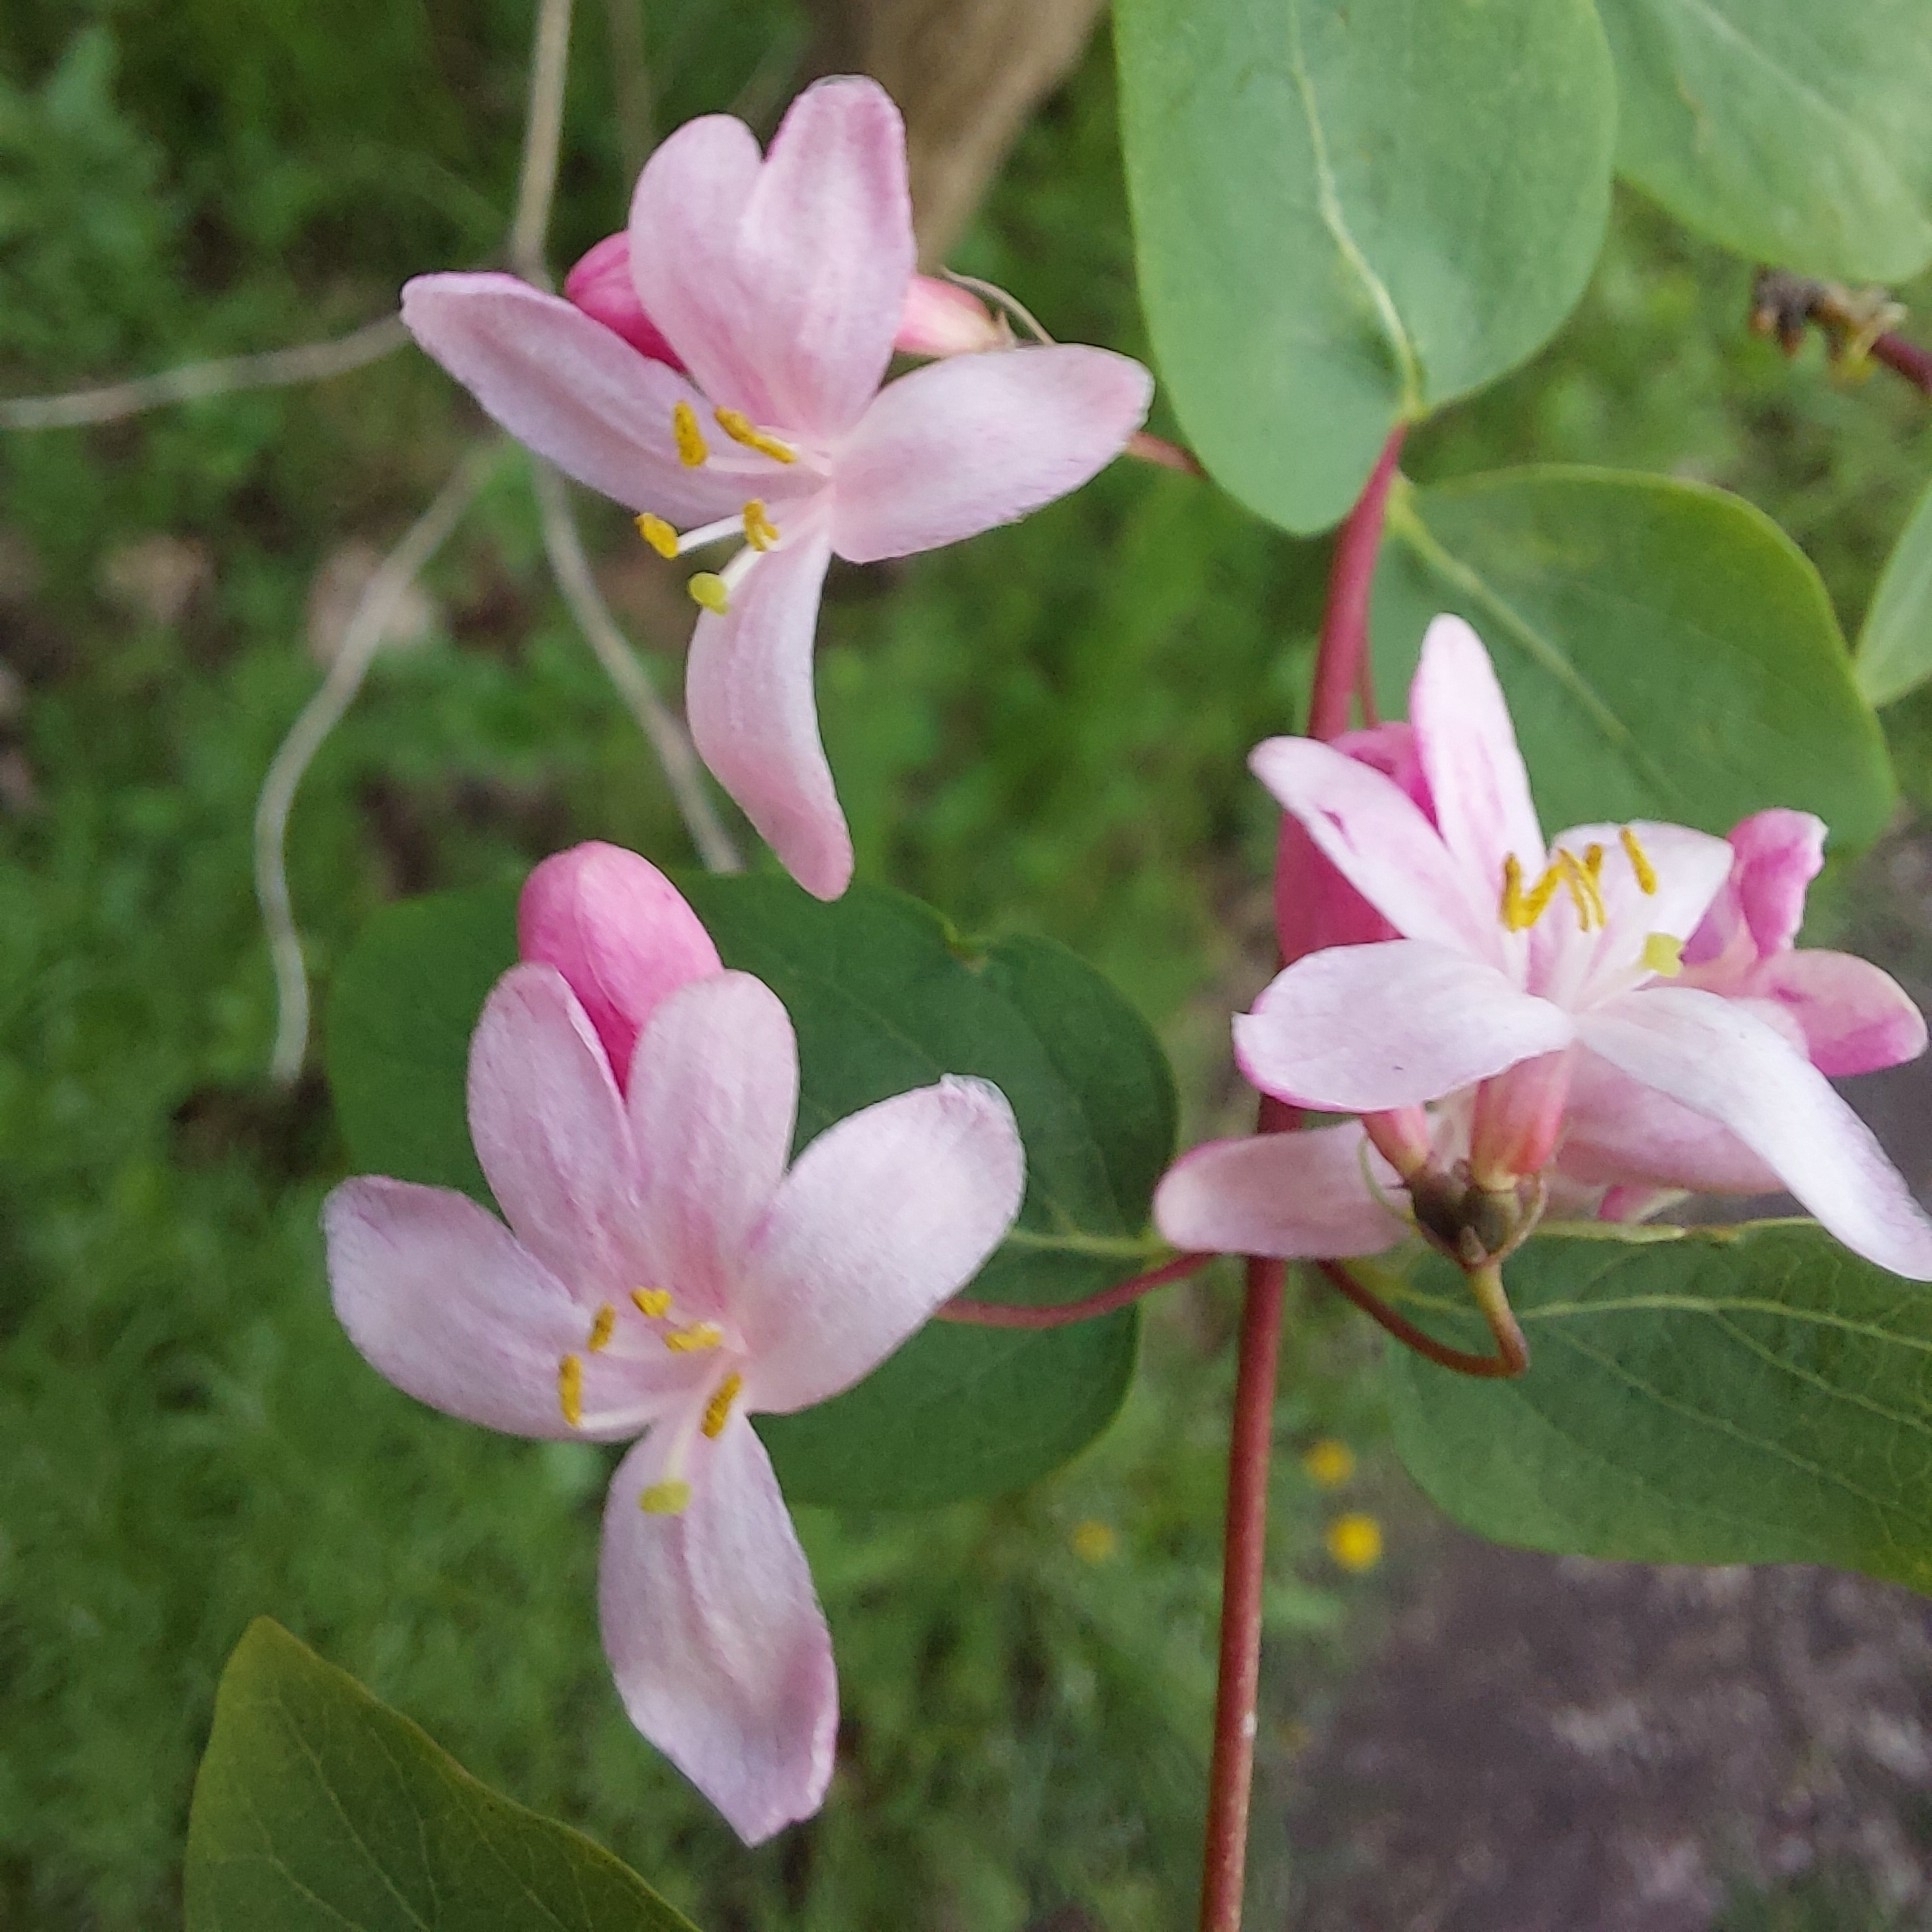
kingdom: Plantae
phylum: Tracheophyta
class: Magnoliopsida
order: Dipsacales
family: Caprifoliaceae
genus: Lonicera
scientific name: Lonicera tatarica
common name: Tatarian honeysuckle
